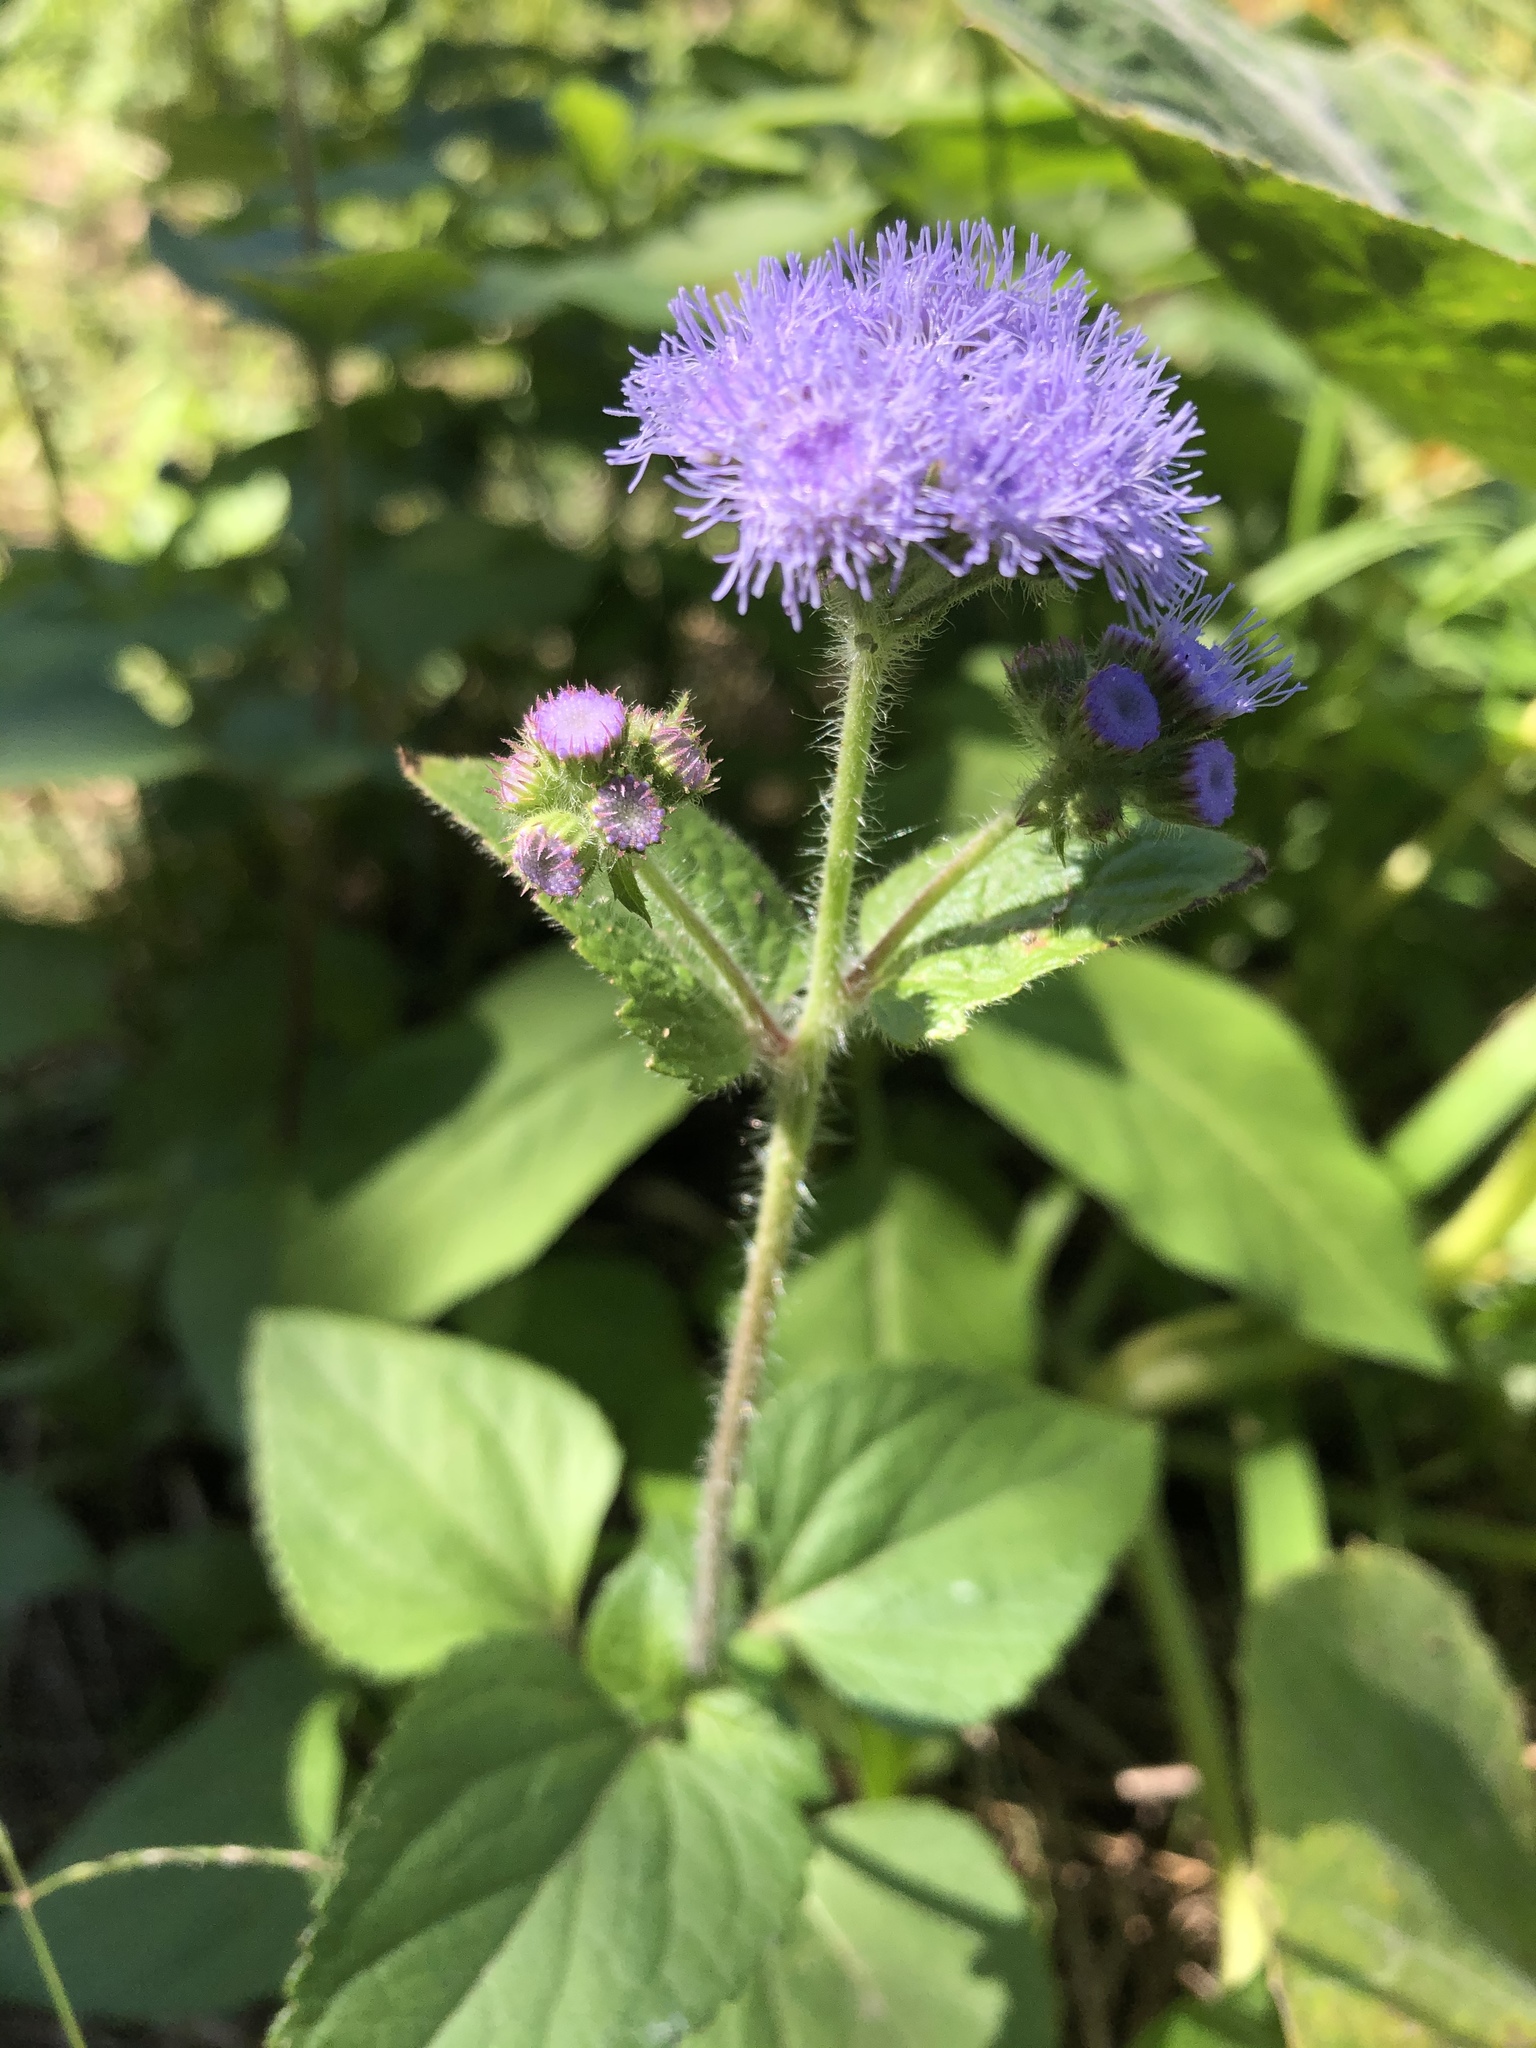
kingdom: Plantae
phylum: Tracheophyta
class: Magnoliopsida
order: Asterales
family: Asteraceae
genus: Ageratum
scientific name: Ageratum houstonianum
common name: Bluemink
